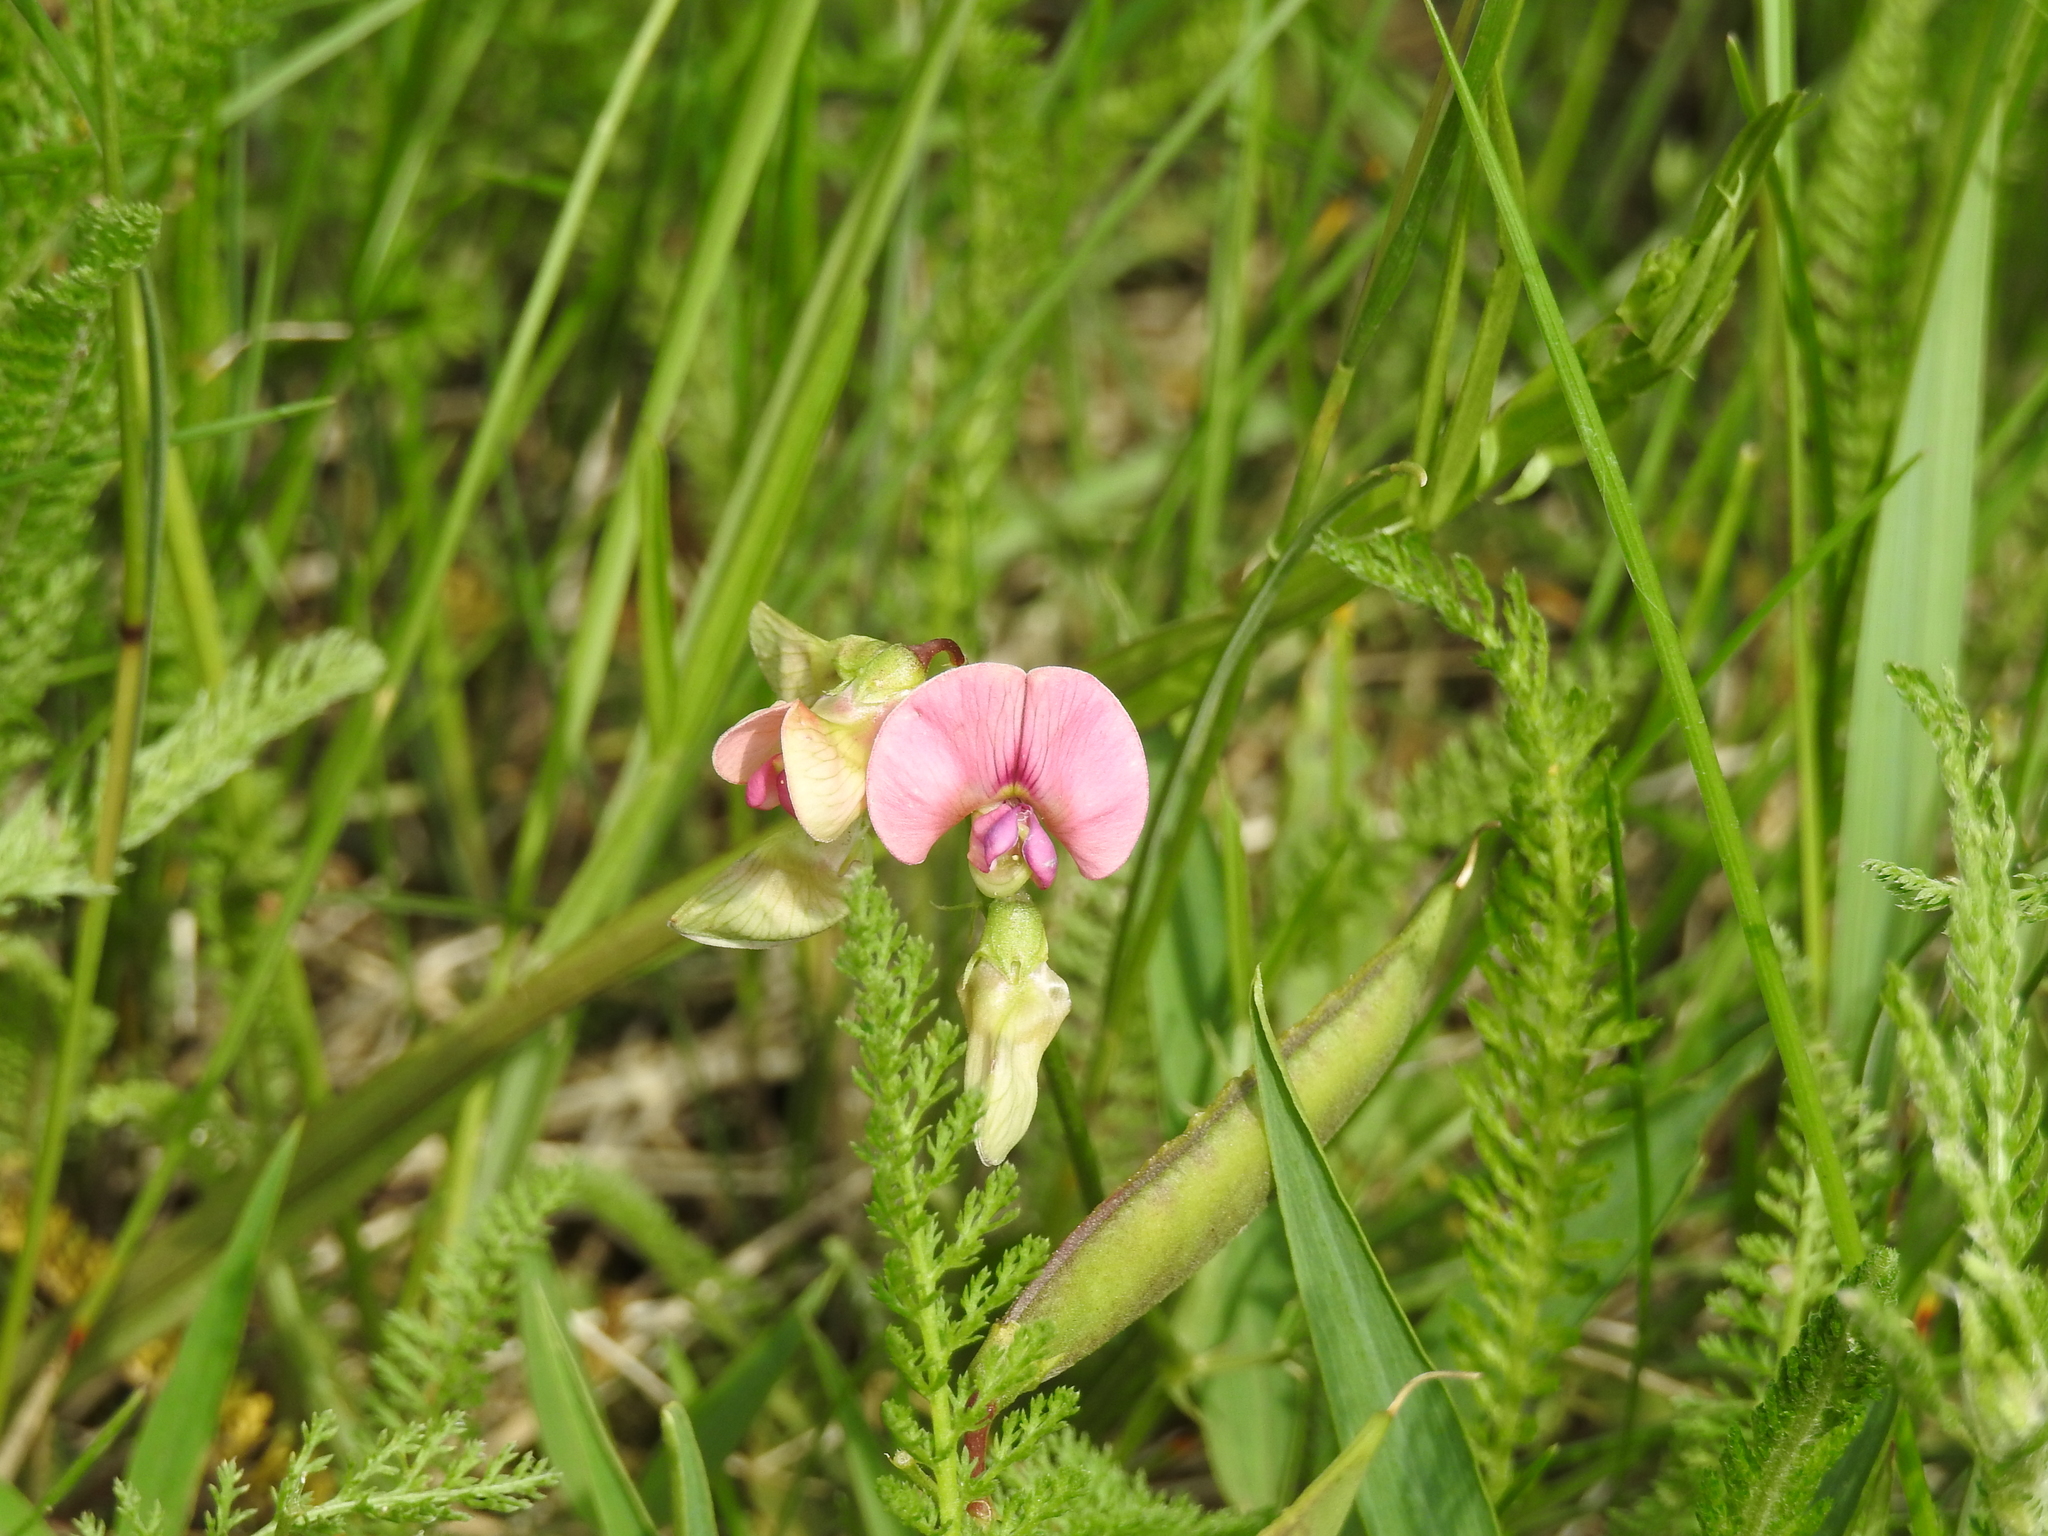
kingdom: Plantae
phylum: Tracheophyta
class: Magnoliopsida
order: Fabales
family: Fabaceae
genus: Lathyrus
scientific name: Lathyrus sylvestris
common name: Flat pea
